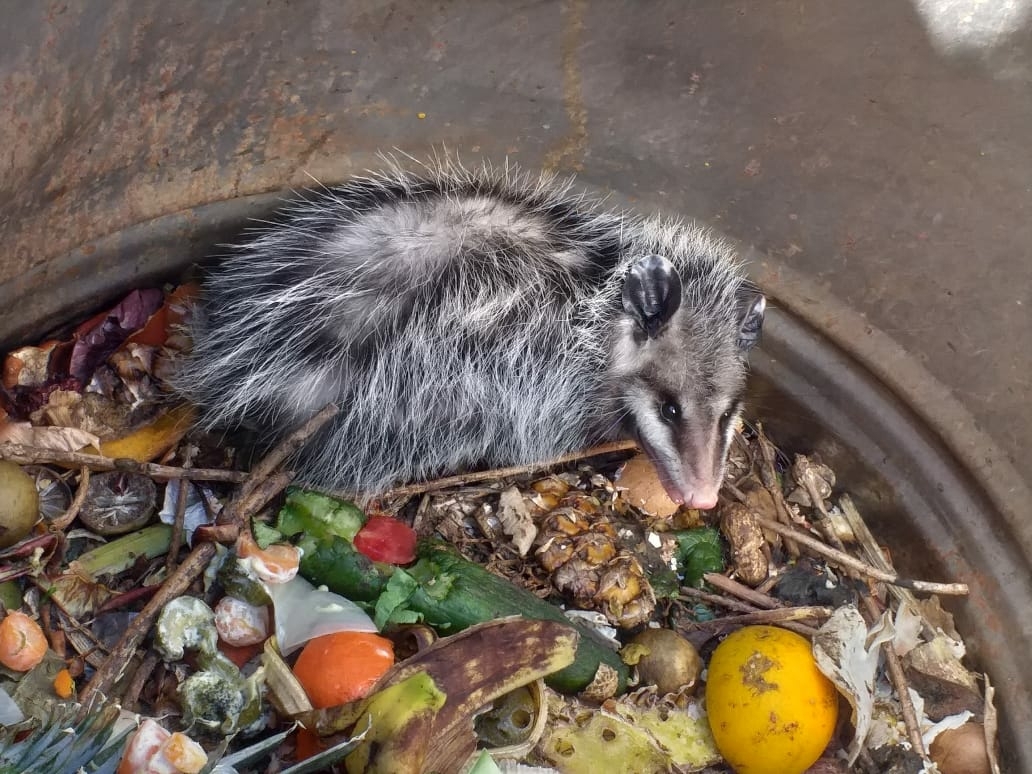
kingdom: Animalia
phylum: Chordata
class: Mammalia
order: Didelphimorphia
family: Didelphidae
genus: Didelphis
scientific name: Didelphis virginiana
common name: Virginia opossum
